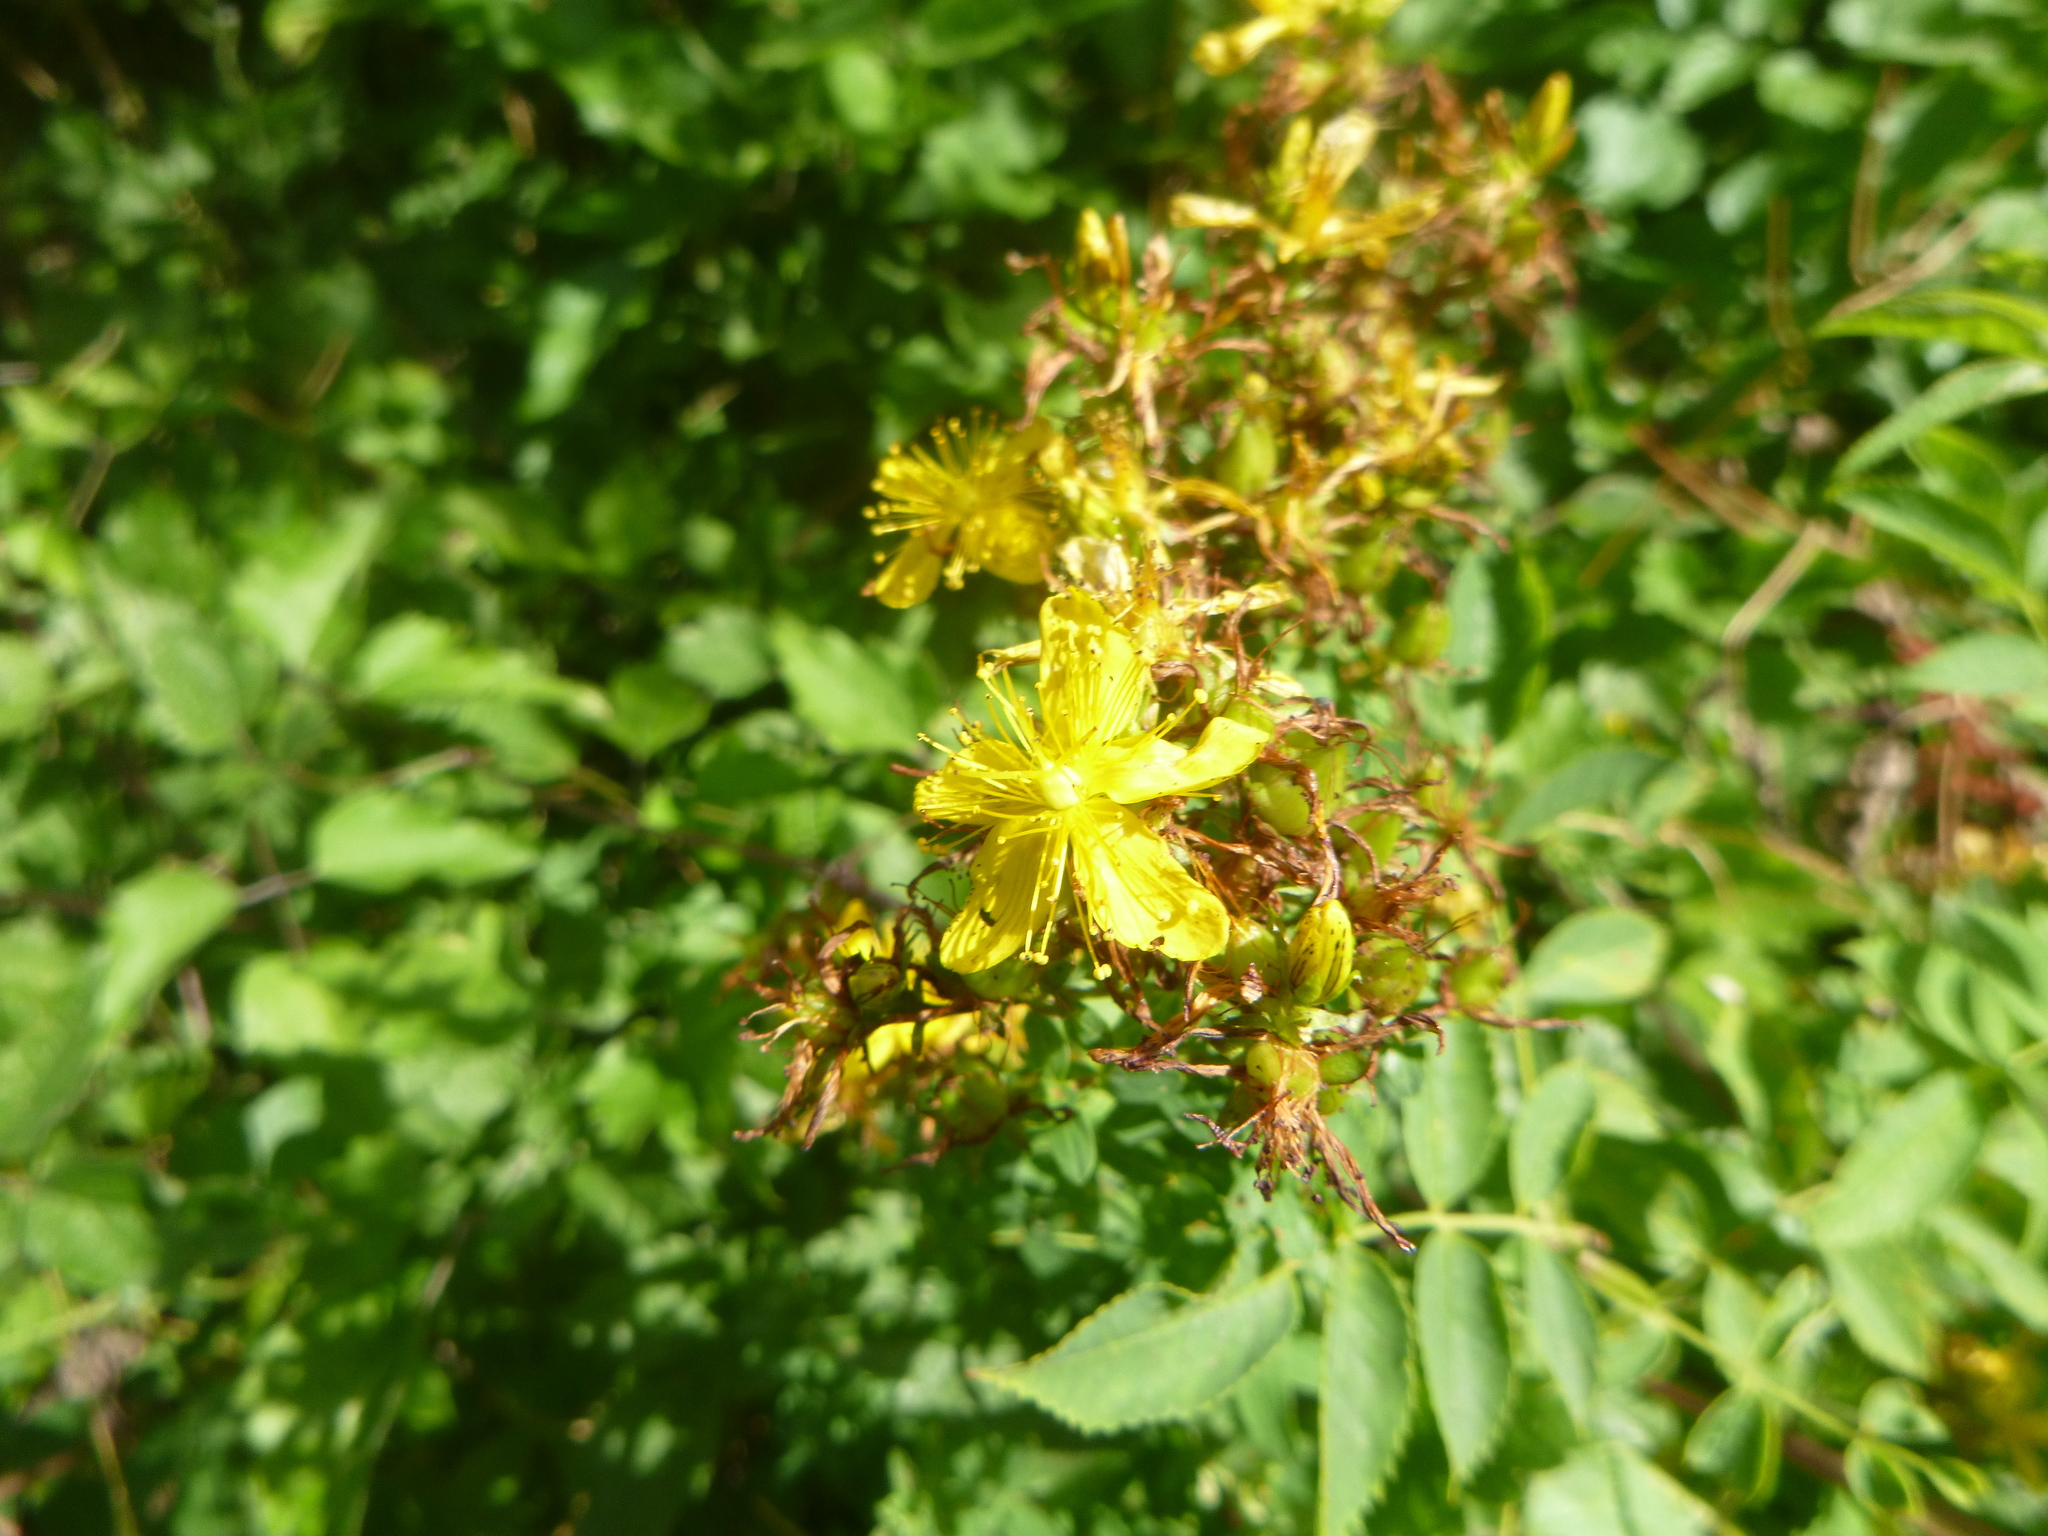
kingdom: Plantae
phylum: Tracheophyta
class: Magnoliopsida
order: Malpighiales
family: Hypericaceae
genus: Hypericum
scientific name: Hypericum perforatum
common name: Common st. johnswort
